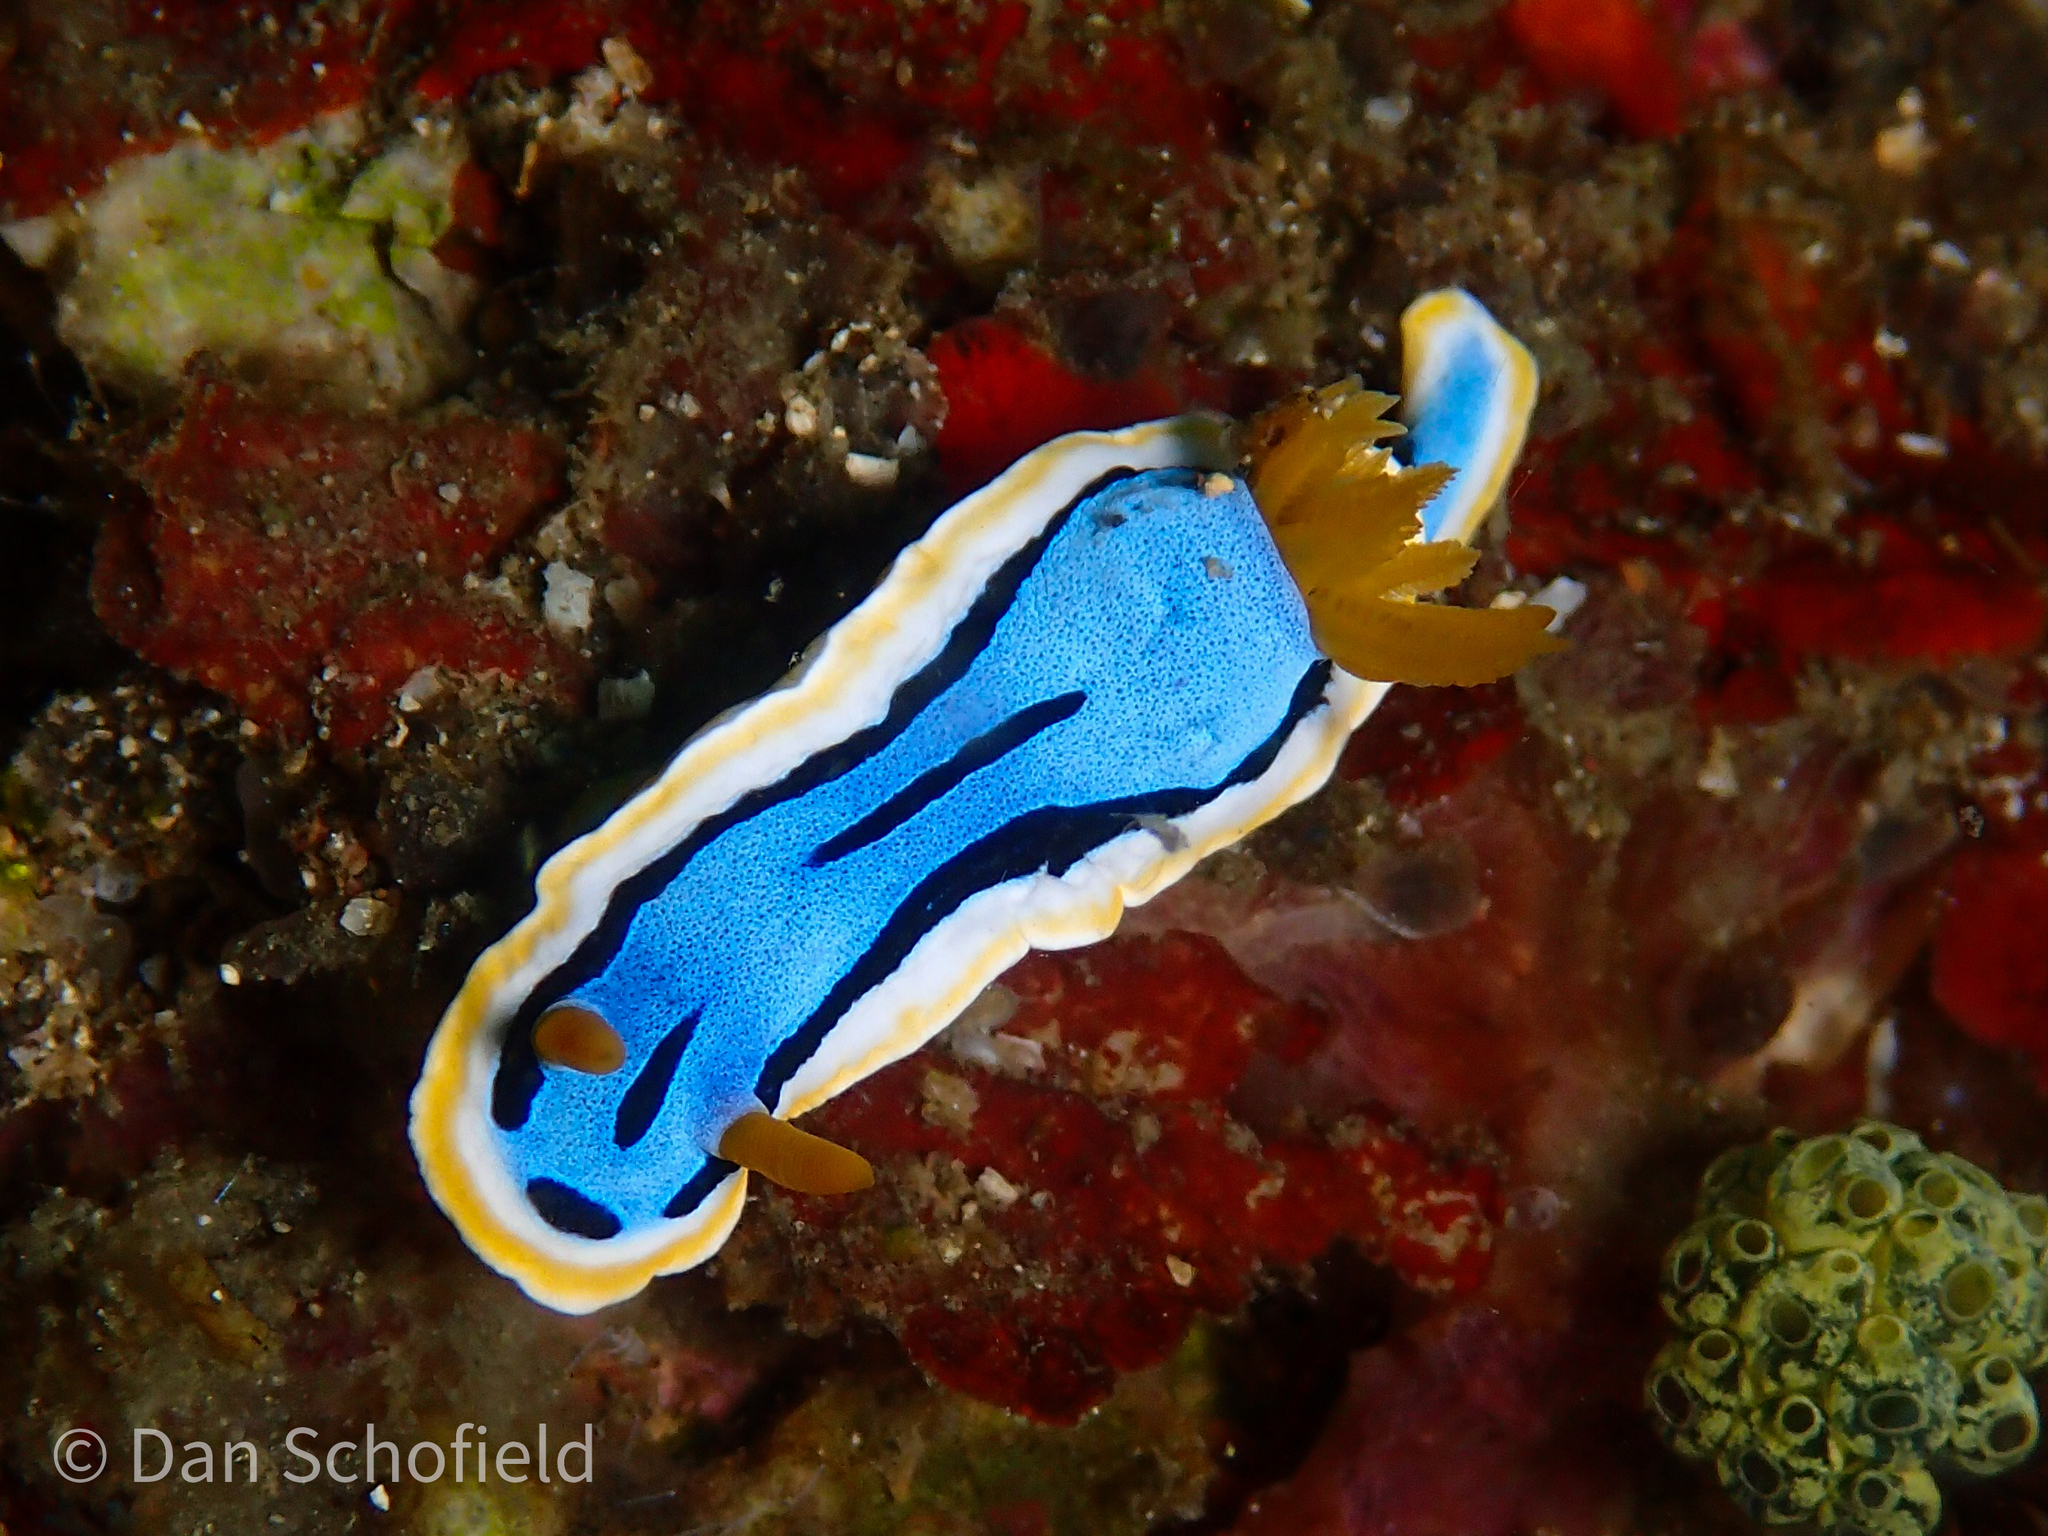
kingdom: Animalia
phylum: Mollusca
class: Gastropoda
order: Nudibranchia
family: Chromodorididae
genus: Chromodoris
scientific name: Chromodoris annae
